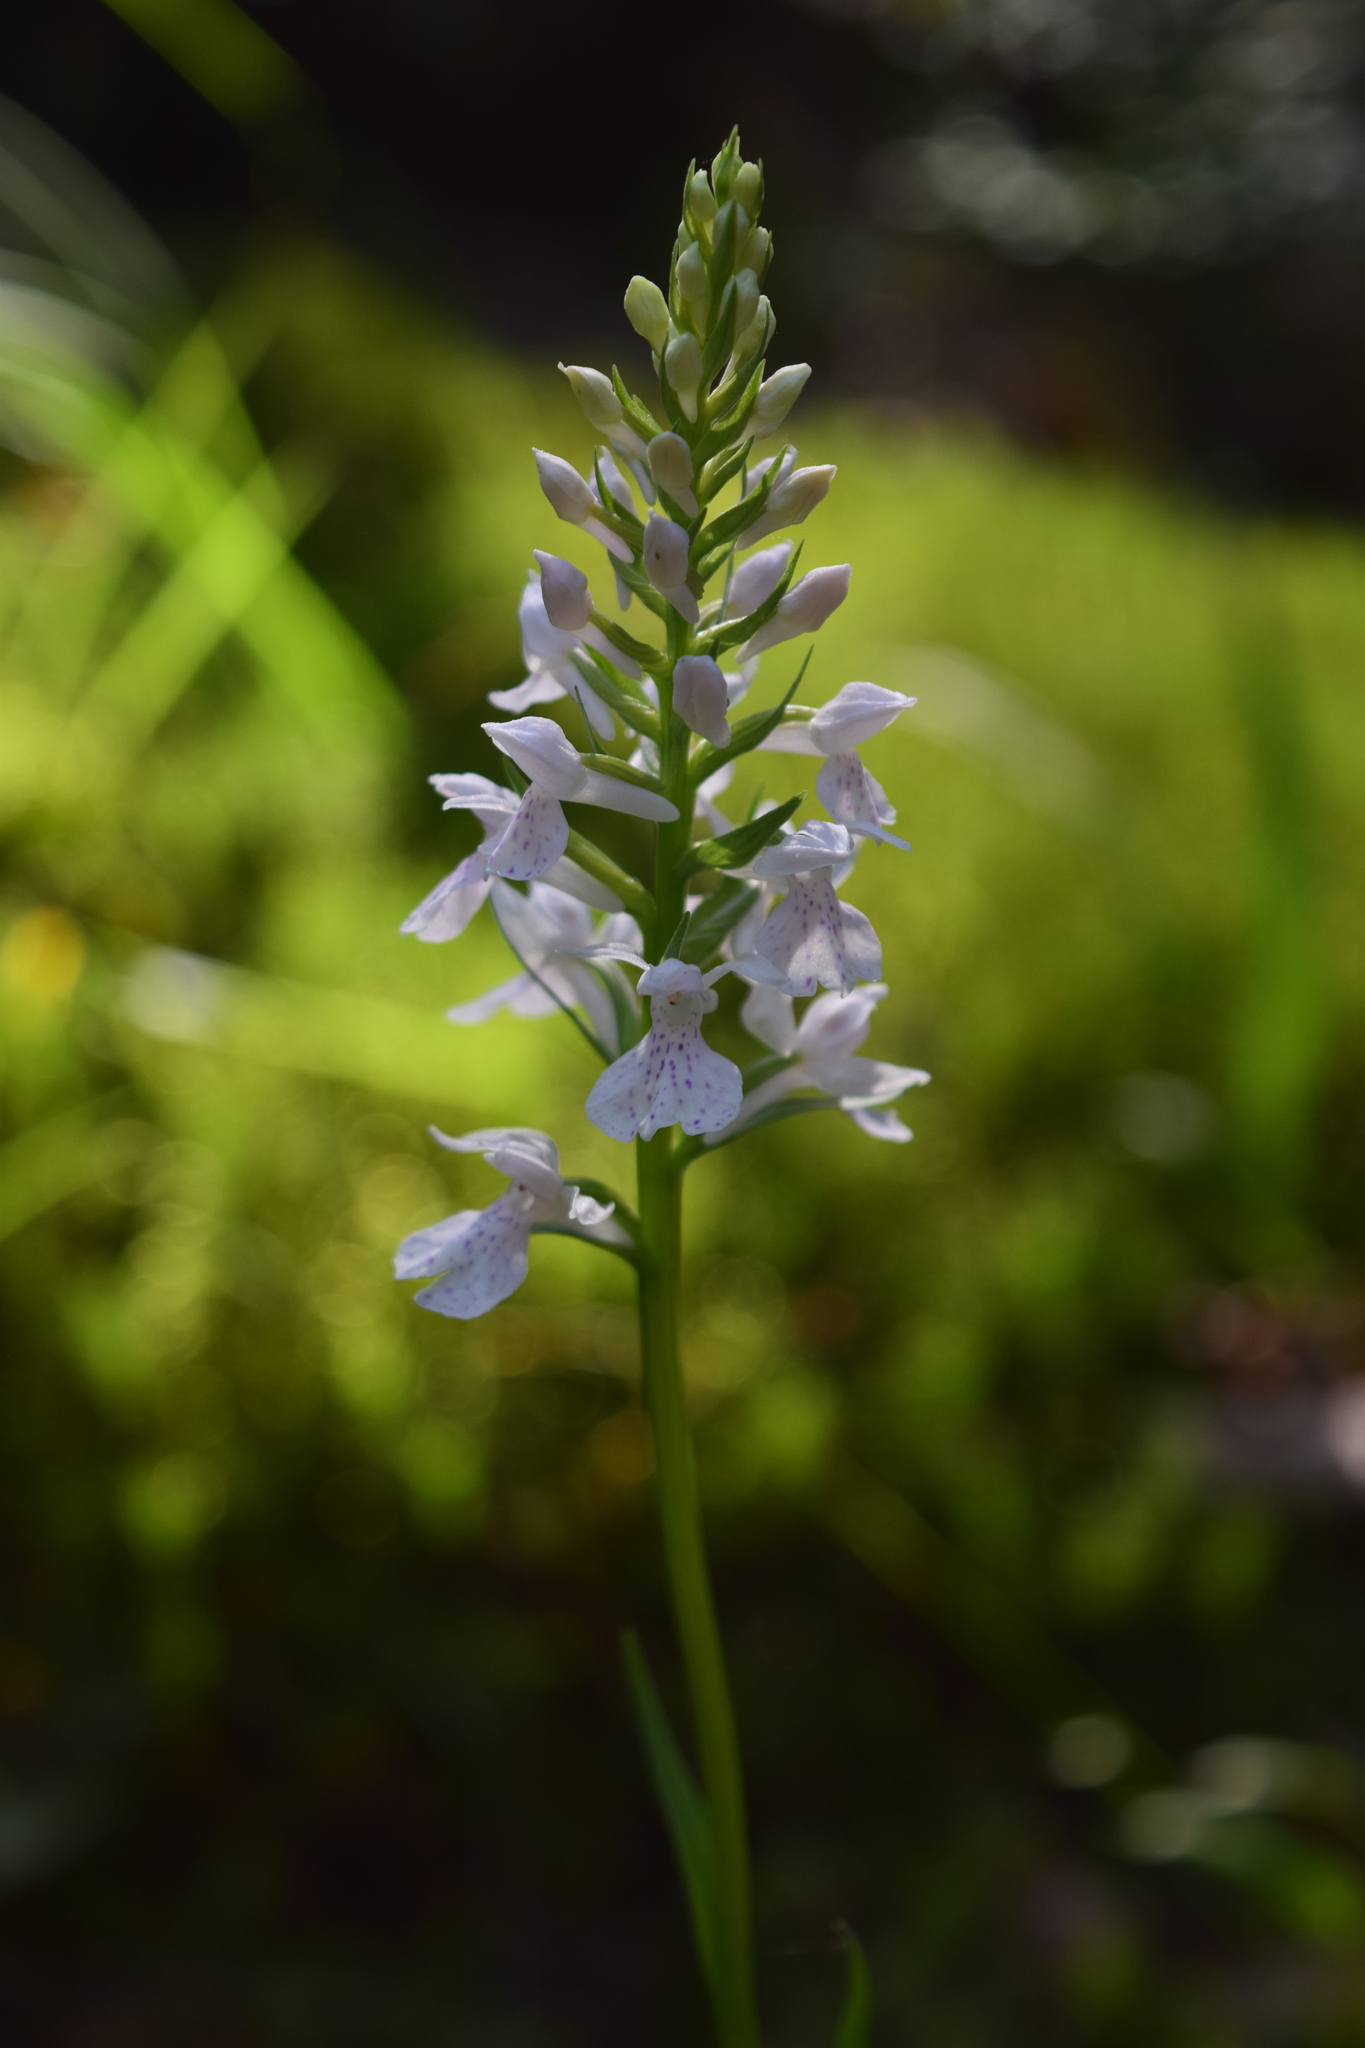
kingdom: Plantae
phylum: Tracheophyta
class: Liliopsida
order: Asparagales
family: Orchidaceae
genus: Dactylorhiza
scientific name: Dactylorhiza maculata
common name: Heath spotted-orchid
